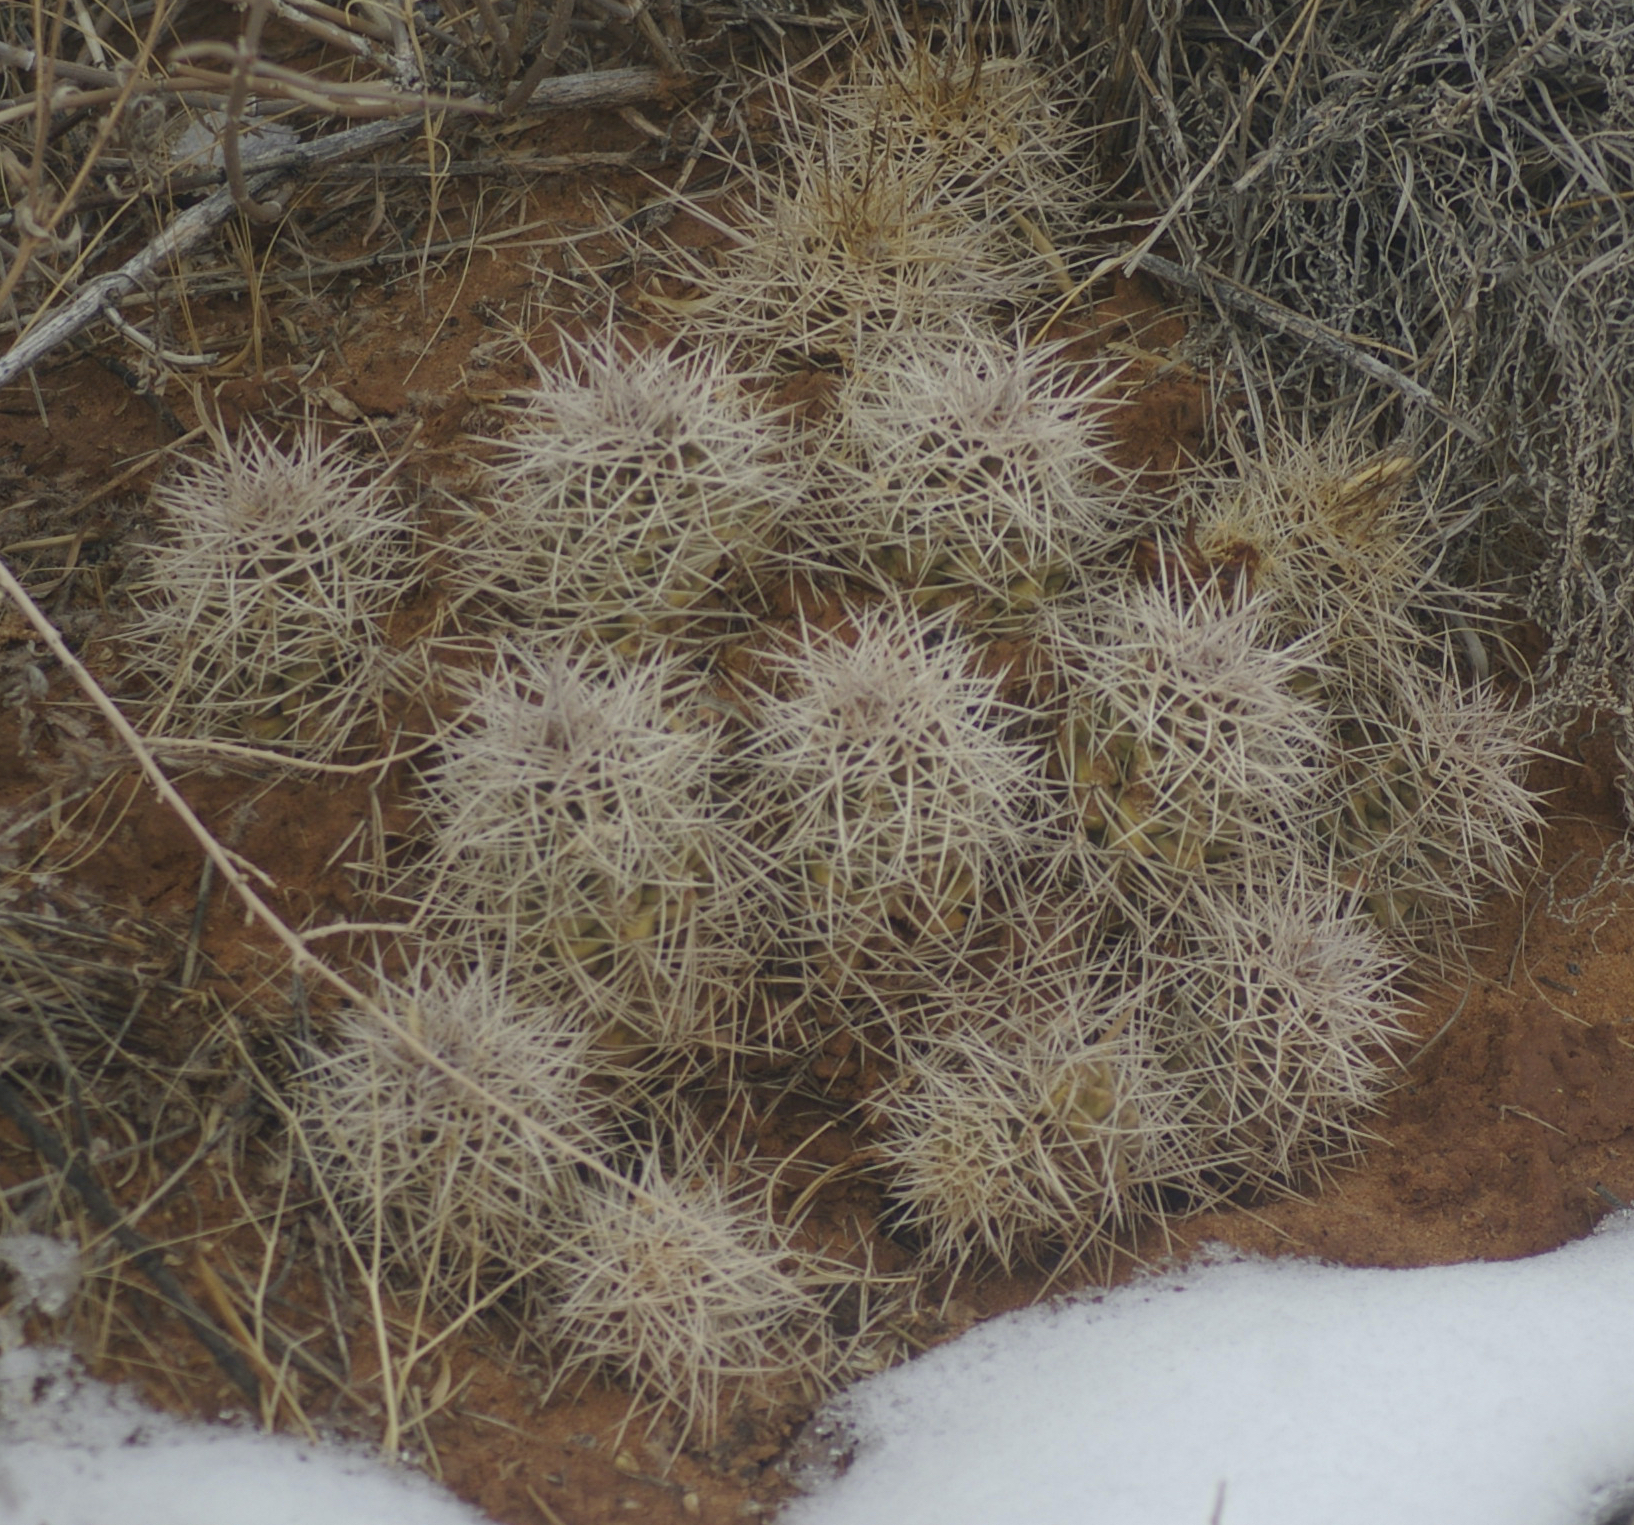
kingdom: Plantae
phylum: Tracheophyta
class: Magnoliopsida
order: Caryophyllales
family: Cactaceae
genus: Echinocereus
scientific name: Echinocereus triglochidiatus
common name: Claretcup hedgehog
